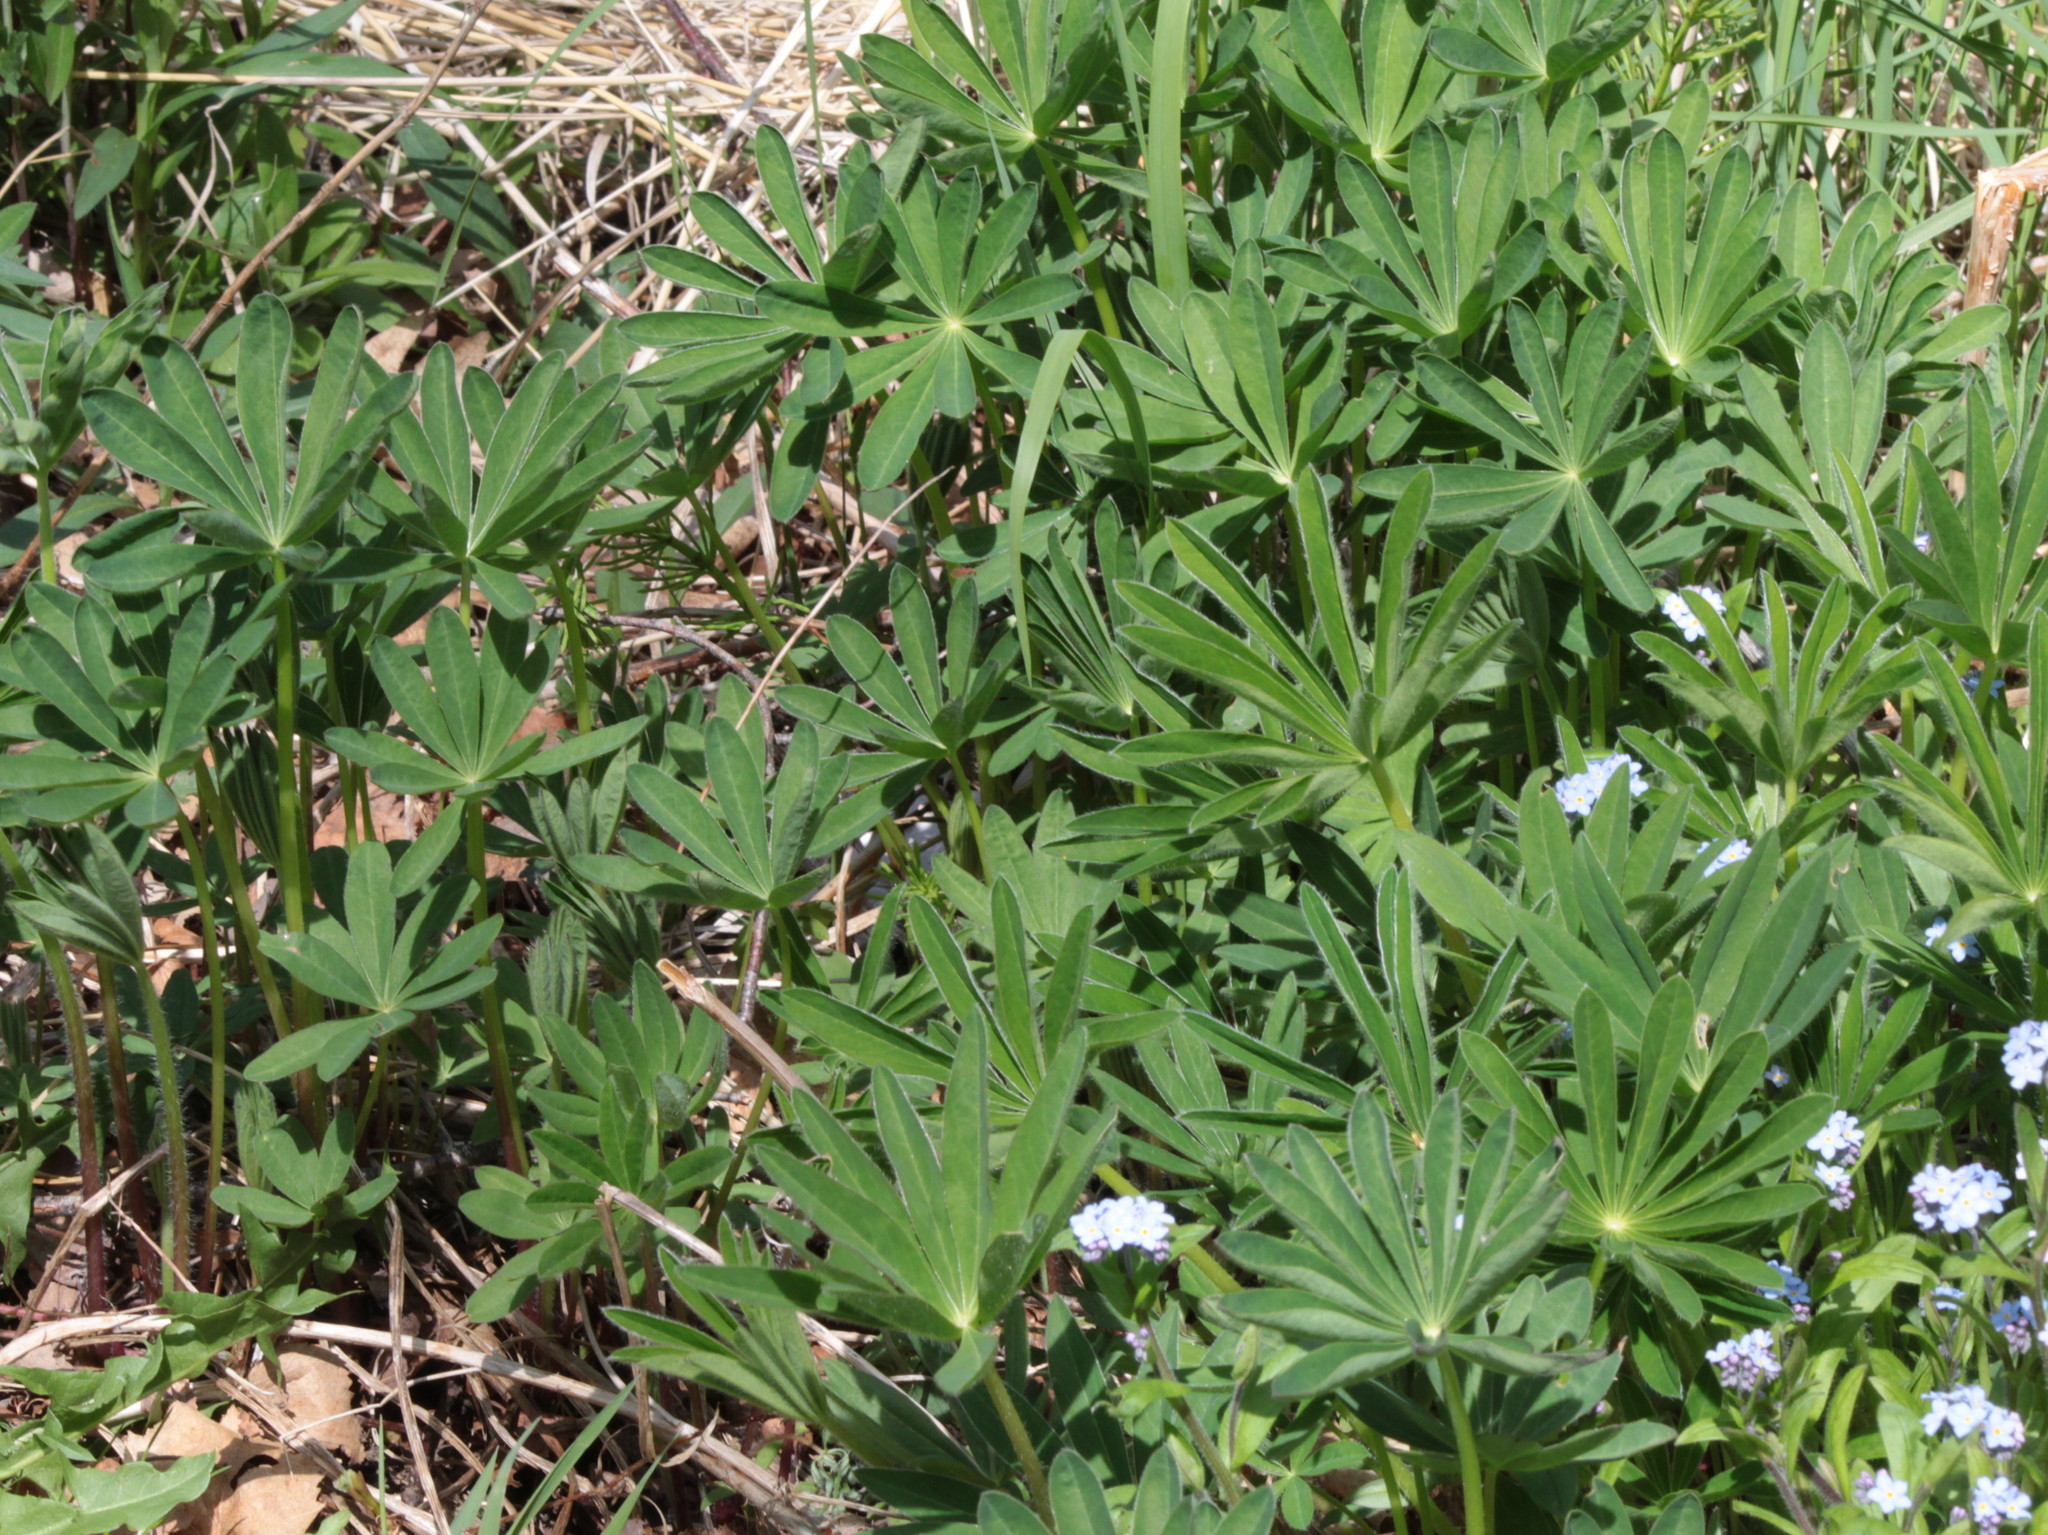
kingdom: Plantae
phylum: Tracheophyta
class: Magnoliopsida
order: Fabales
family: Fabaceae
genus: Lupinus
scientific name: Lupinus polyphyllus
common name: Garden lupin
